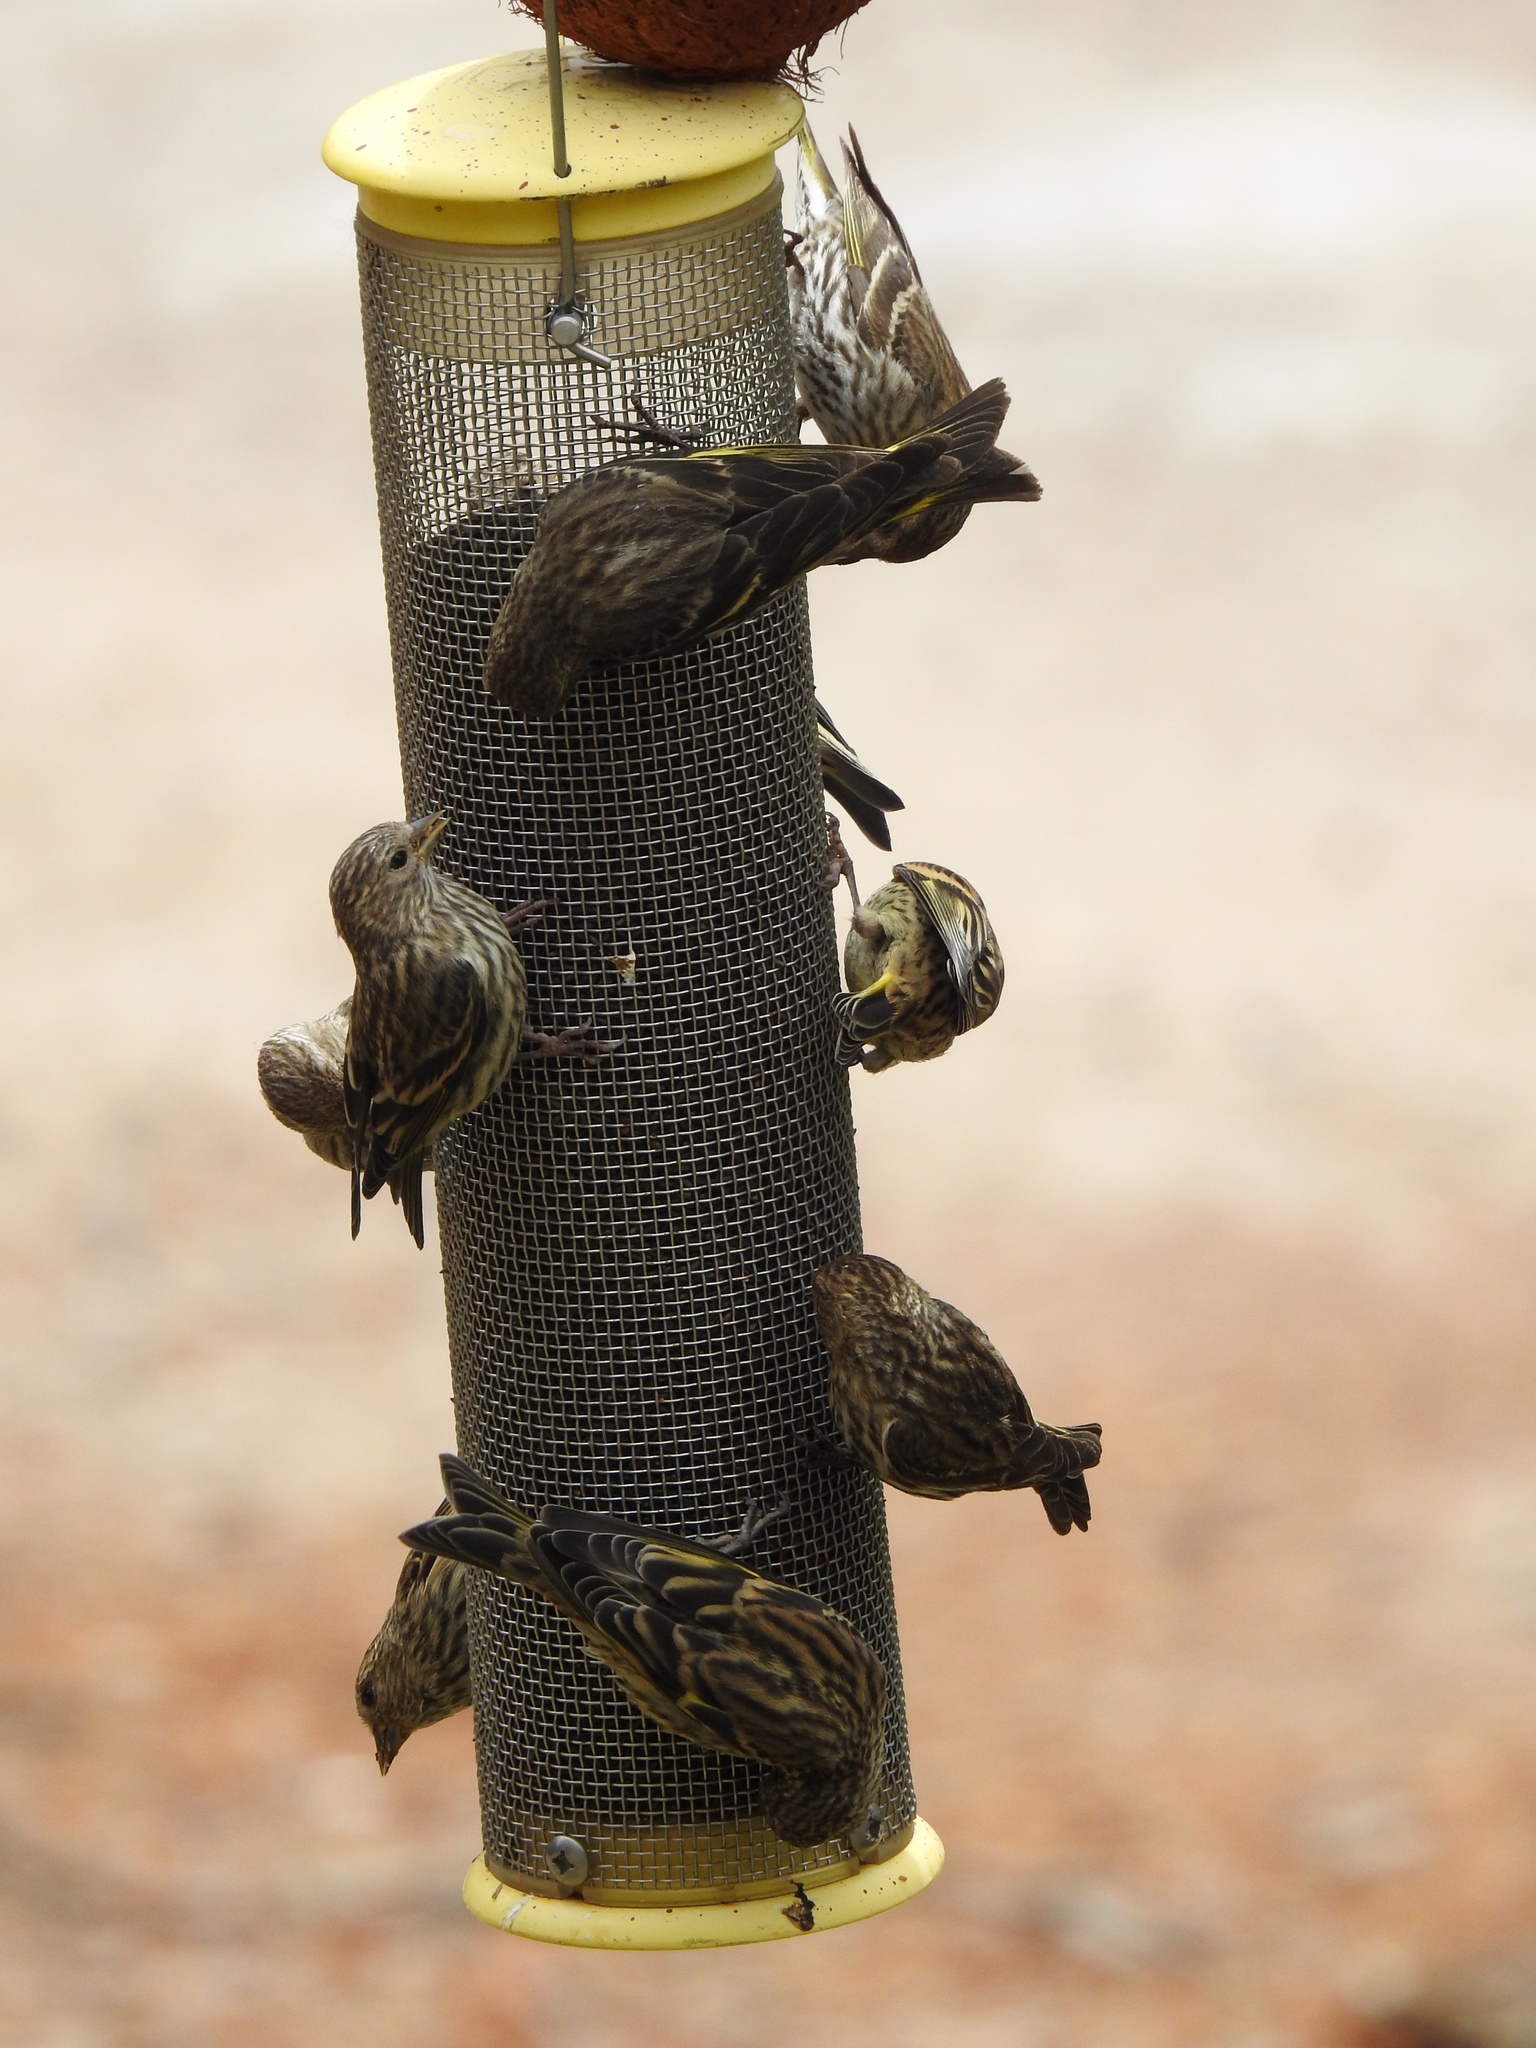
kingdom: Animalia
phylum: Chordata
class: Aves
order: Passeriformes
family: Fringillidae
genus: Spinus
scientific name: Spinus pinus
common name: Pine siskin
